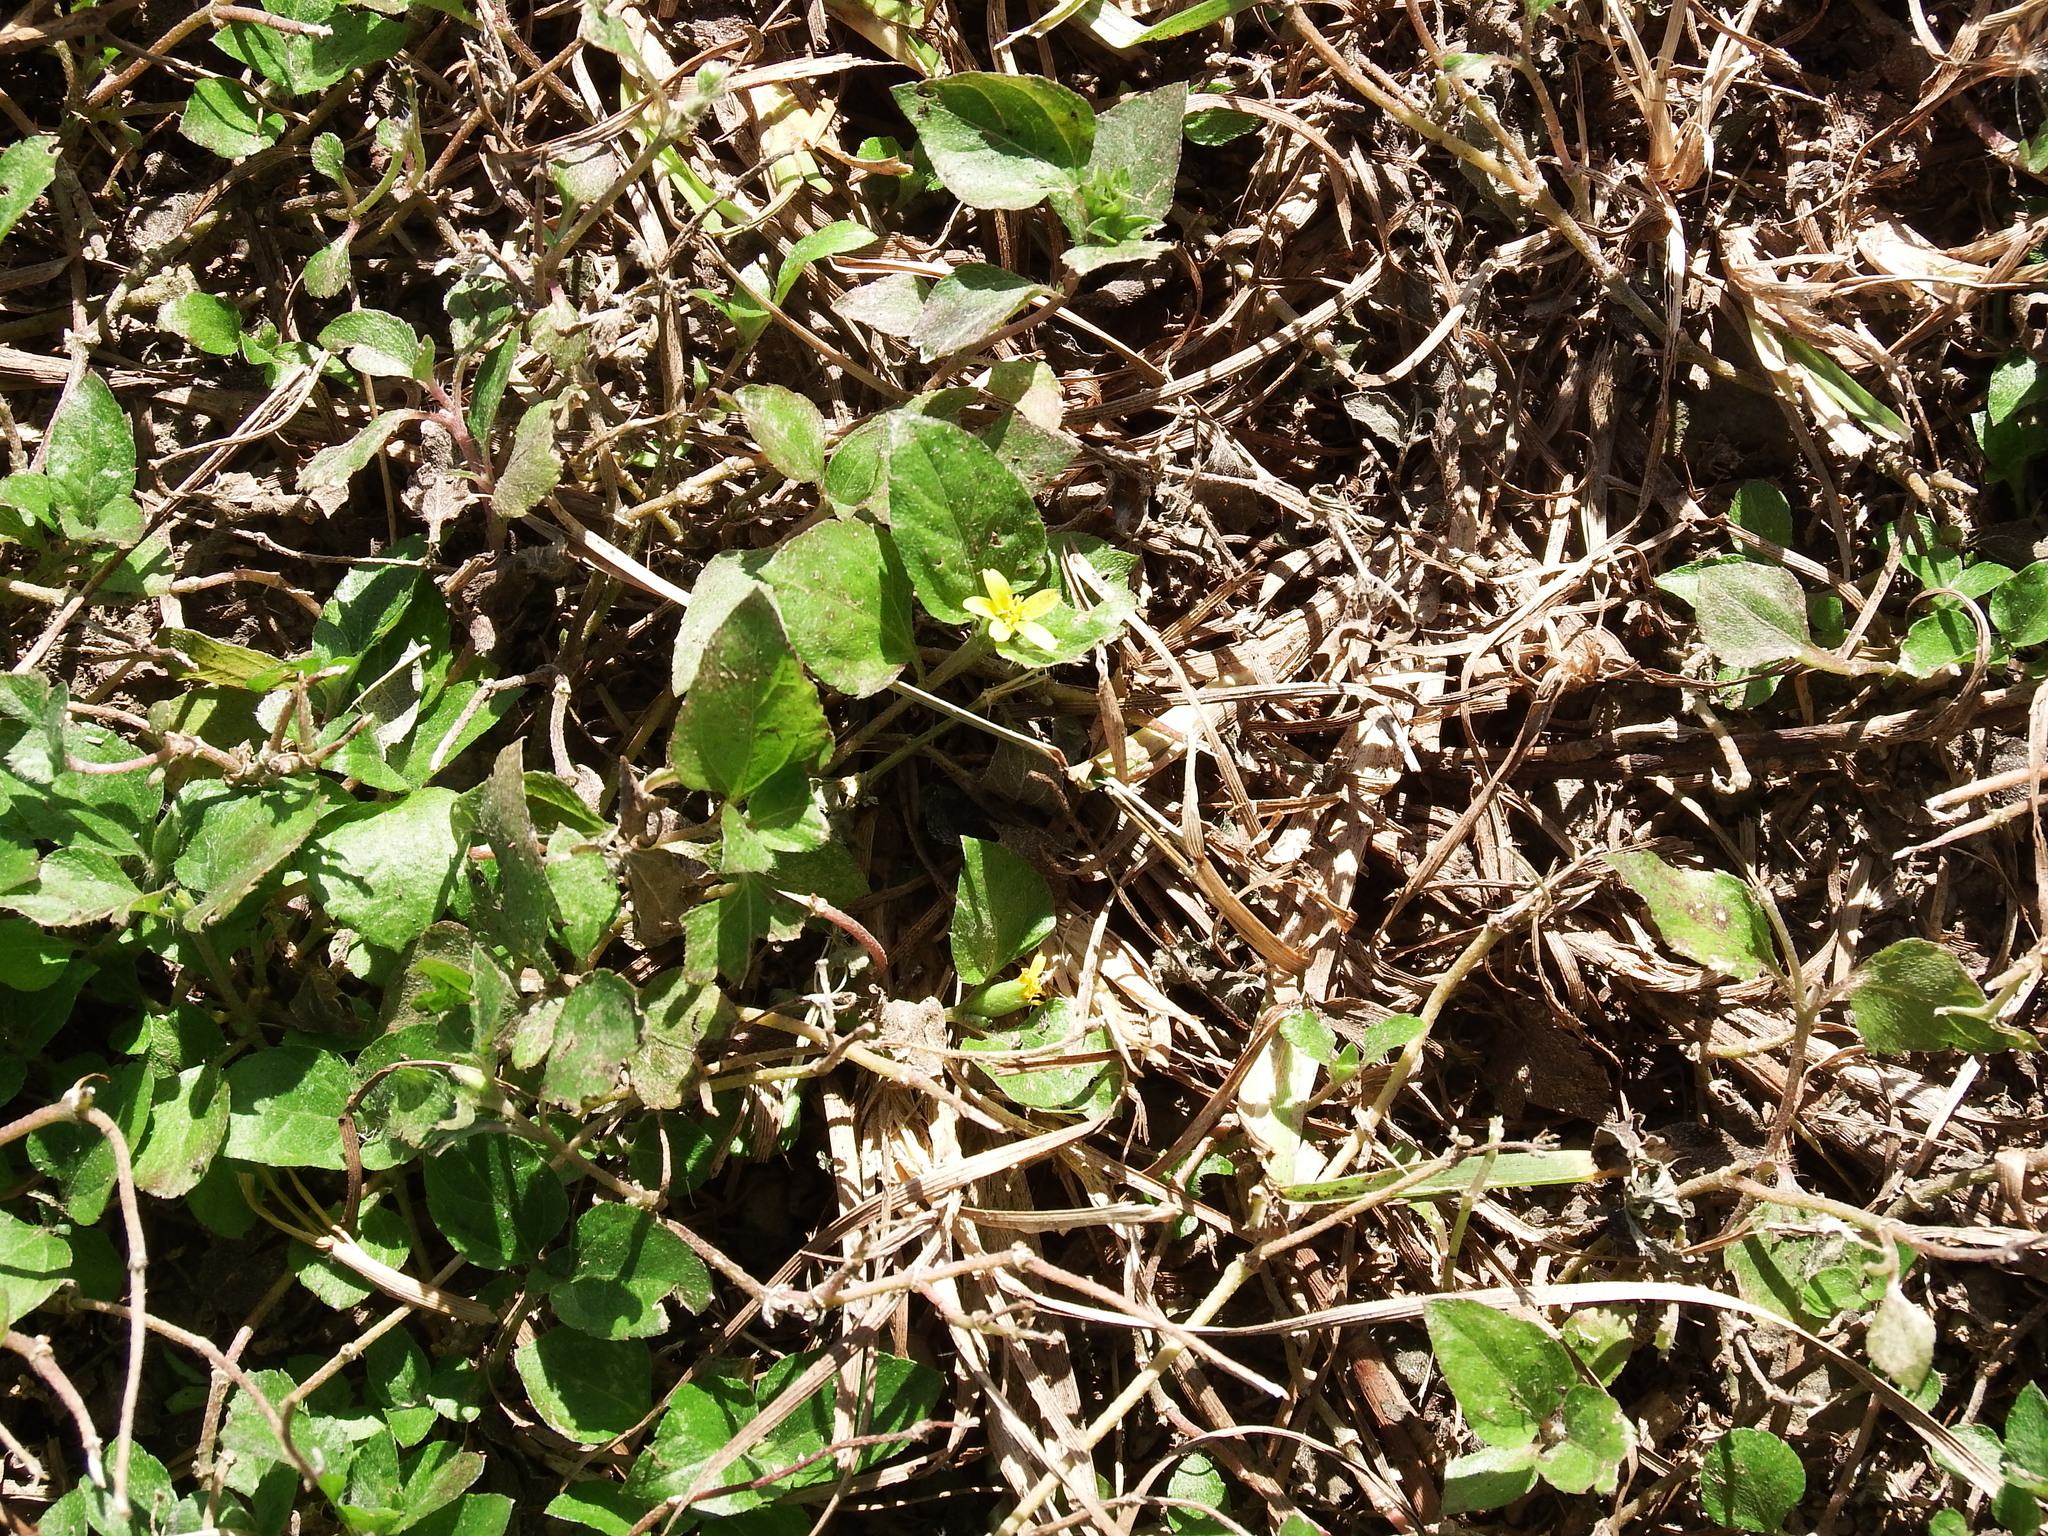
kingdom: Plantae
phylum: Tracheophyta
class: Magnoliopsida
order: Asterales
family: Asteraceae
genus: Calyptocarpus
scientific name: Calyptocarpus vialis
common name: Straggler daisy
